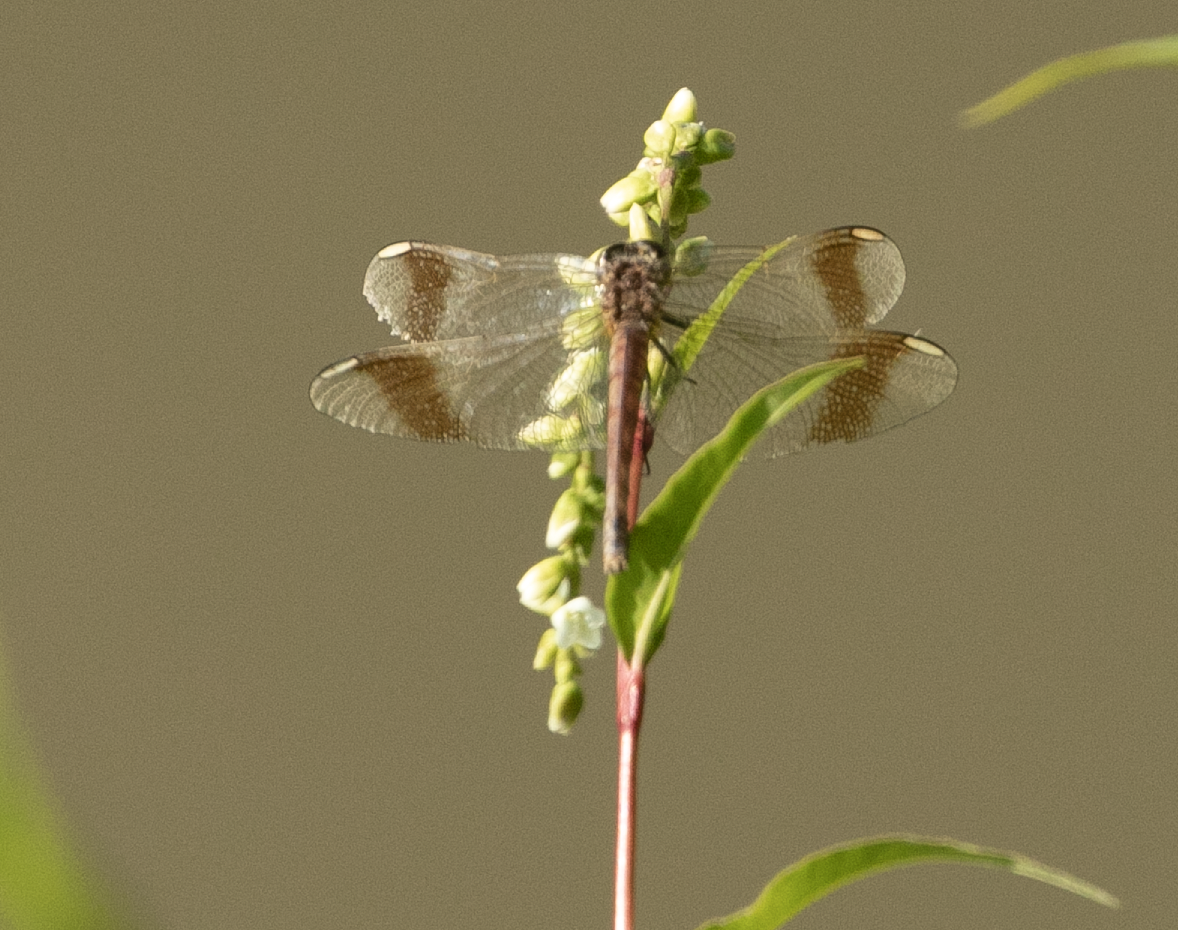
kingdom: Animalia
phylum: Arthropoda
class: Insecta
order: Odonata
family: Libellulidae
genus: Sympetrum
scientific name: Sympetrum pedemontanum
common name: Banded darter
